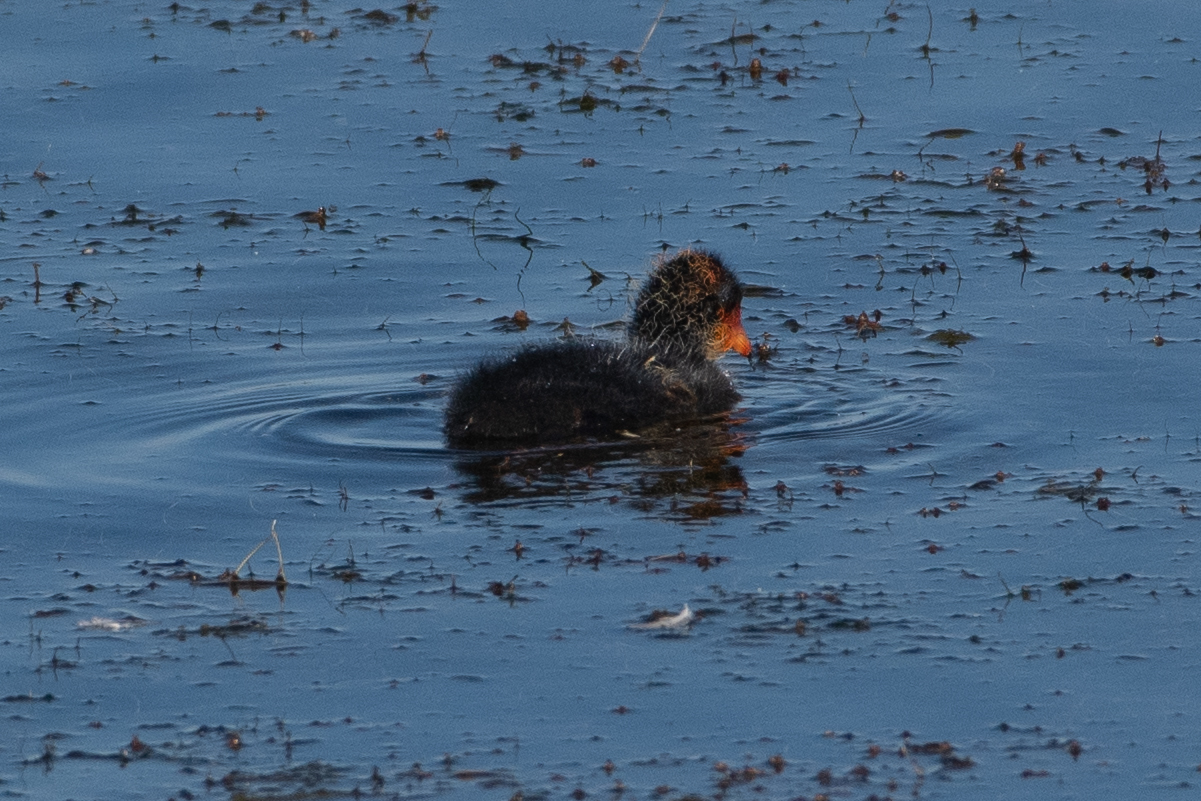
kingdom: Animalia
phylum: Chordata
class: Aves
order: Gruiformes
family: Rallidae
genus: Fulica
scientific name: Fulica americana
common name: American coot
